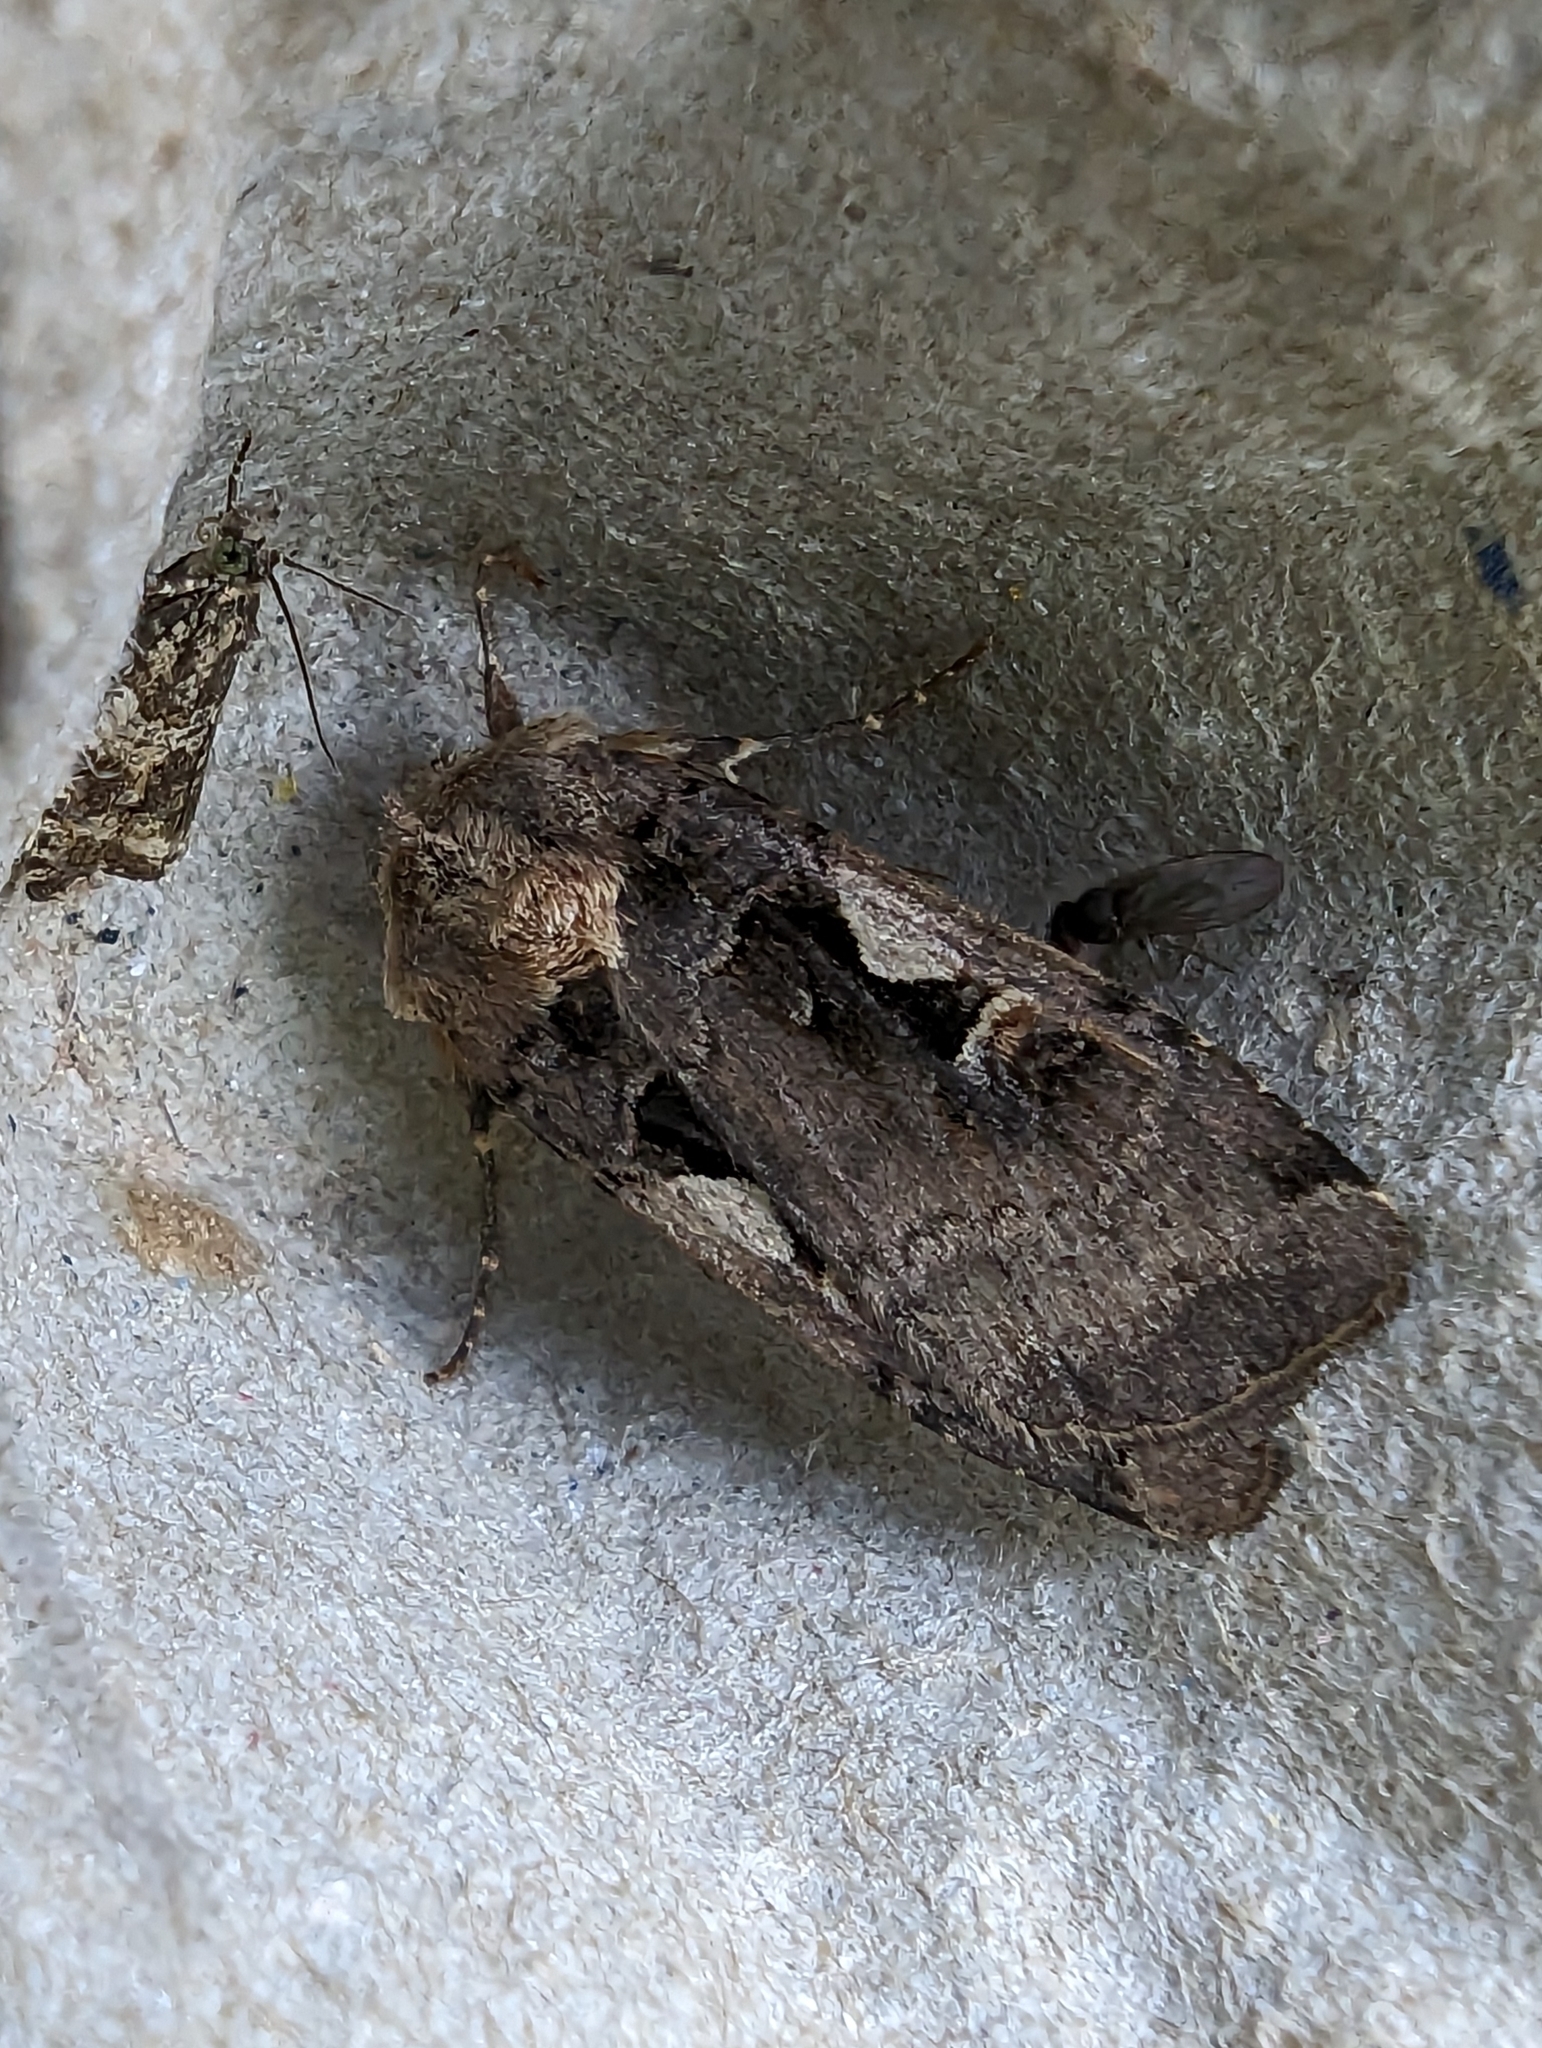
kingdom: Animalia
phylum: Arthropoda
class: Insecta
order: Lepidoptera
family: Noctuidae
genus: Xestia
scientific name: Xestia c-nigrum
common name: Setaceous hebrew character
